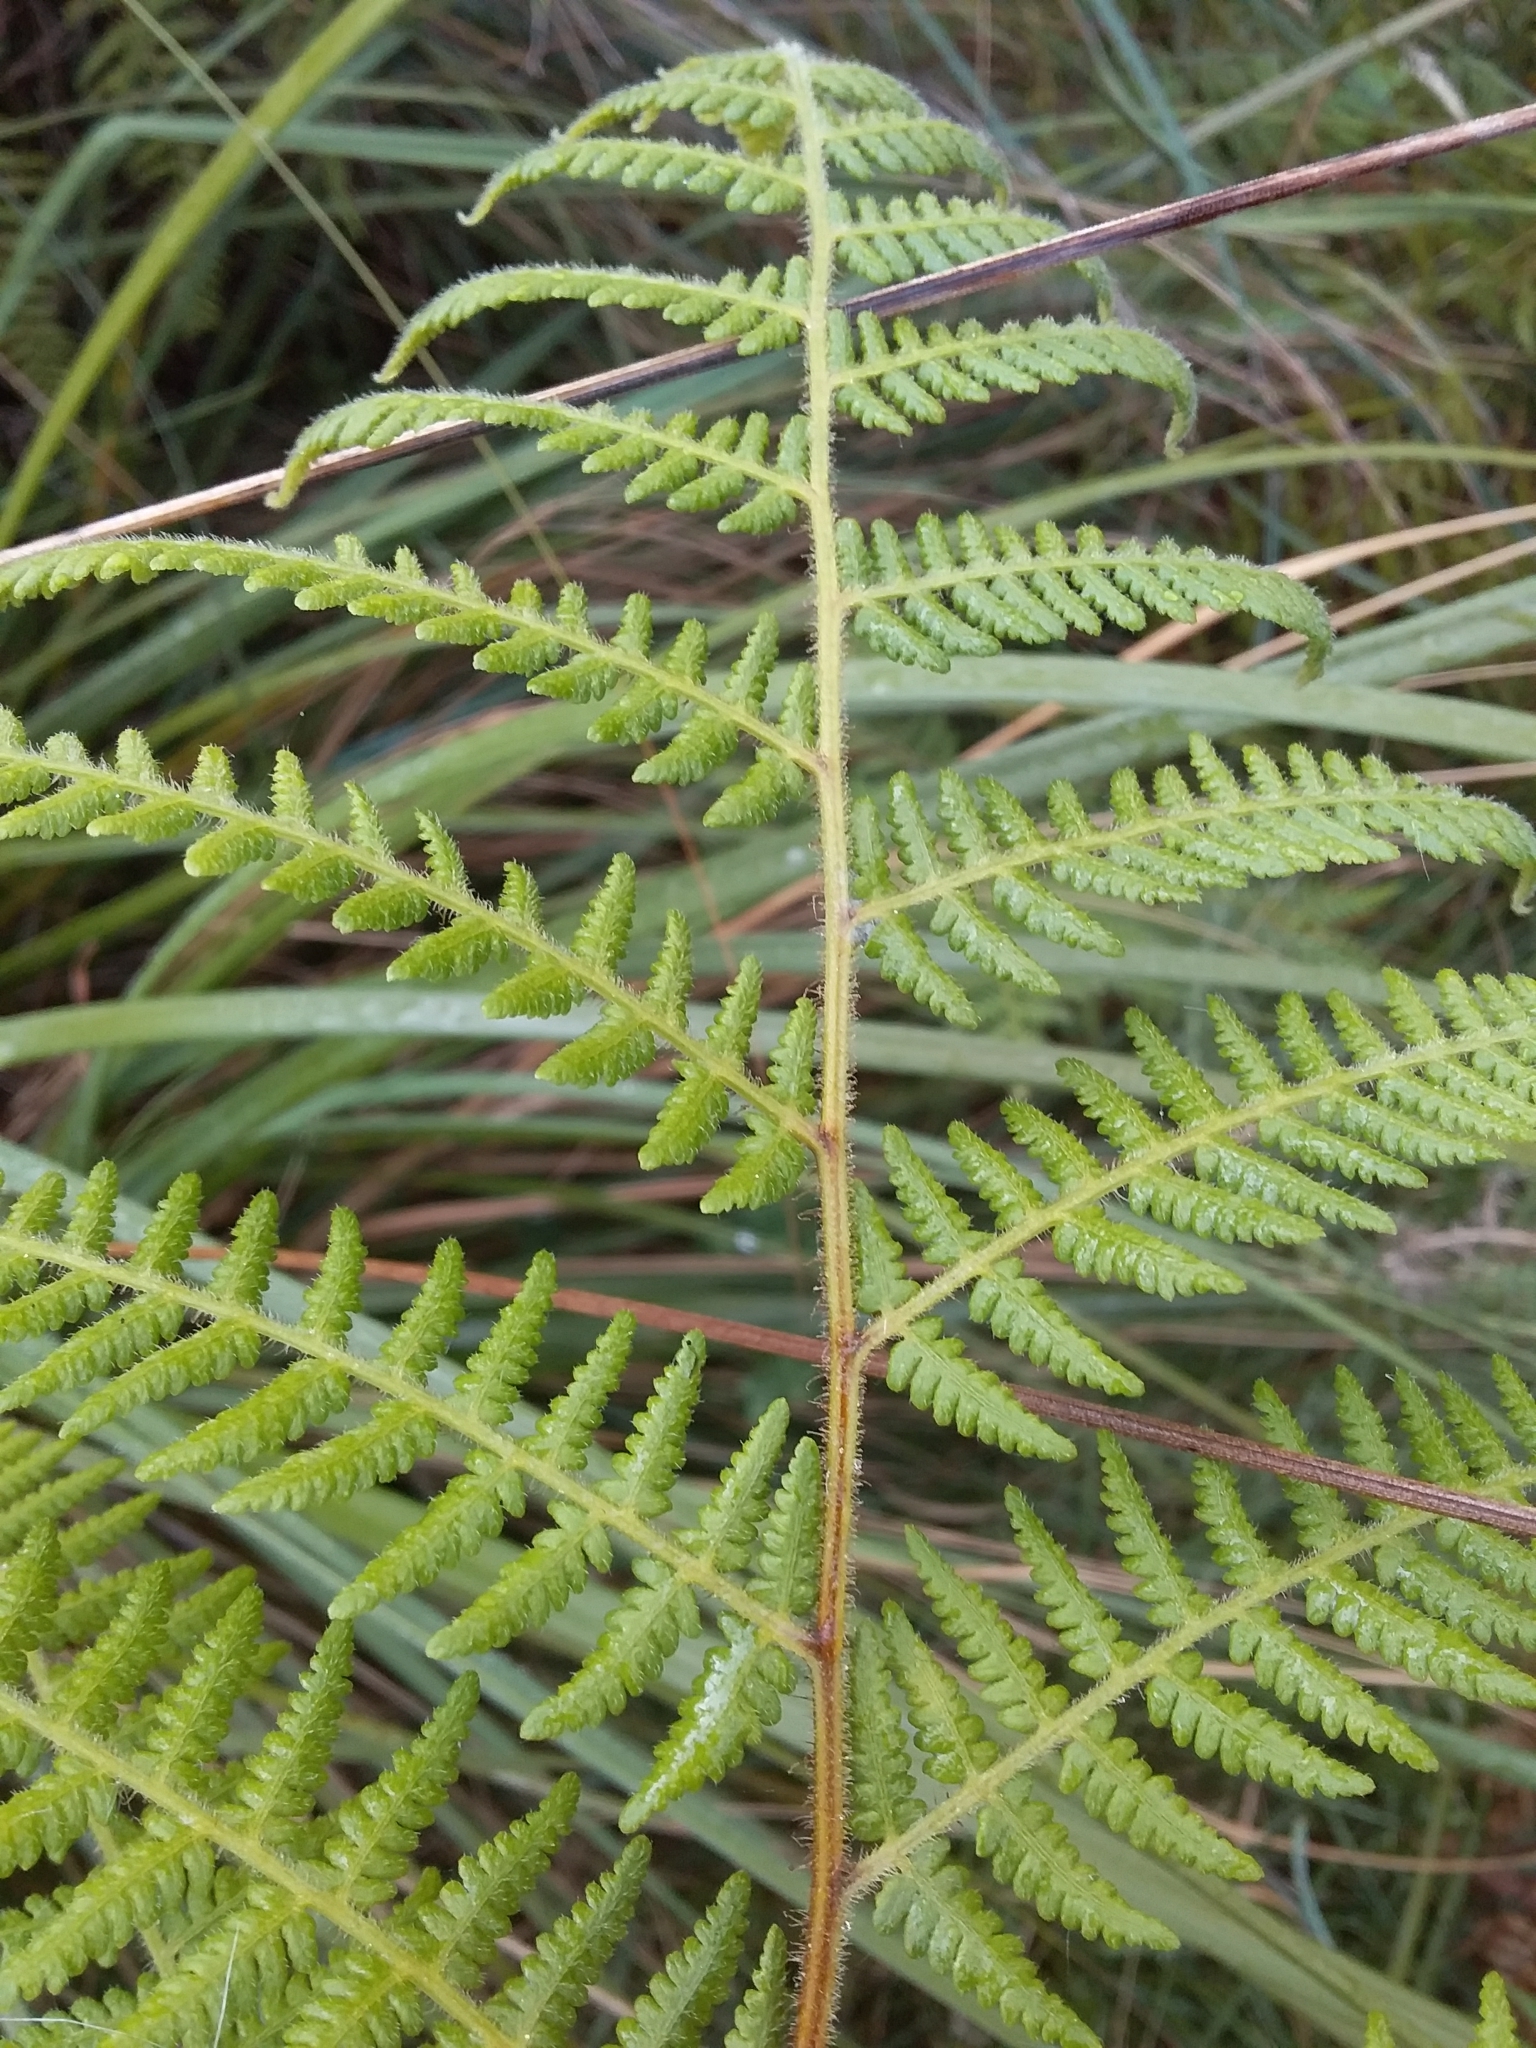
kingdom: Plantae
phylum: Tracheophyta
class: Polypodiopsida
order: Polypodiales
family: Dennstaedtiaceae
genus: Hypolepis
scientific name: Hypolepis rugosula
